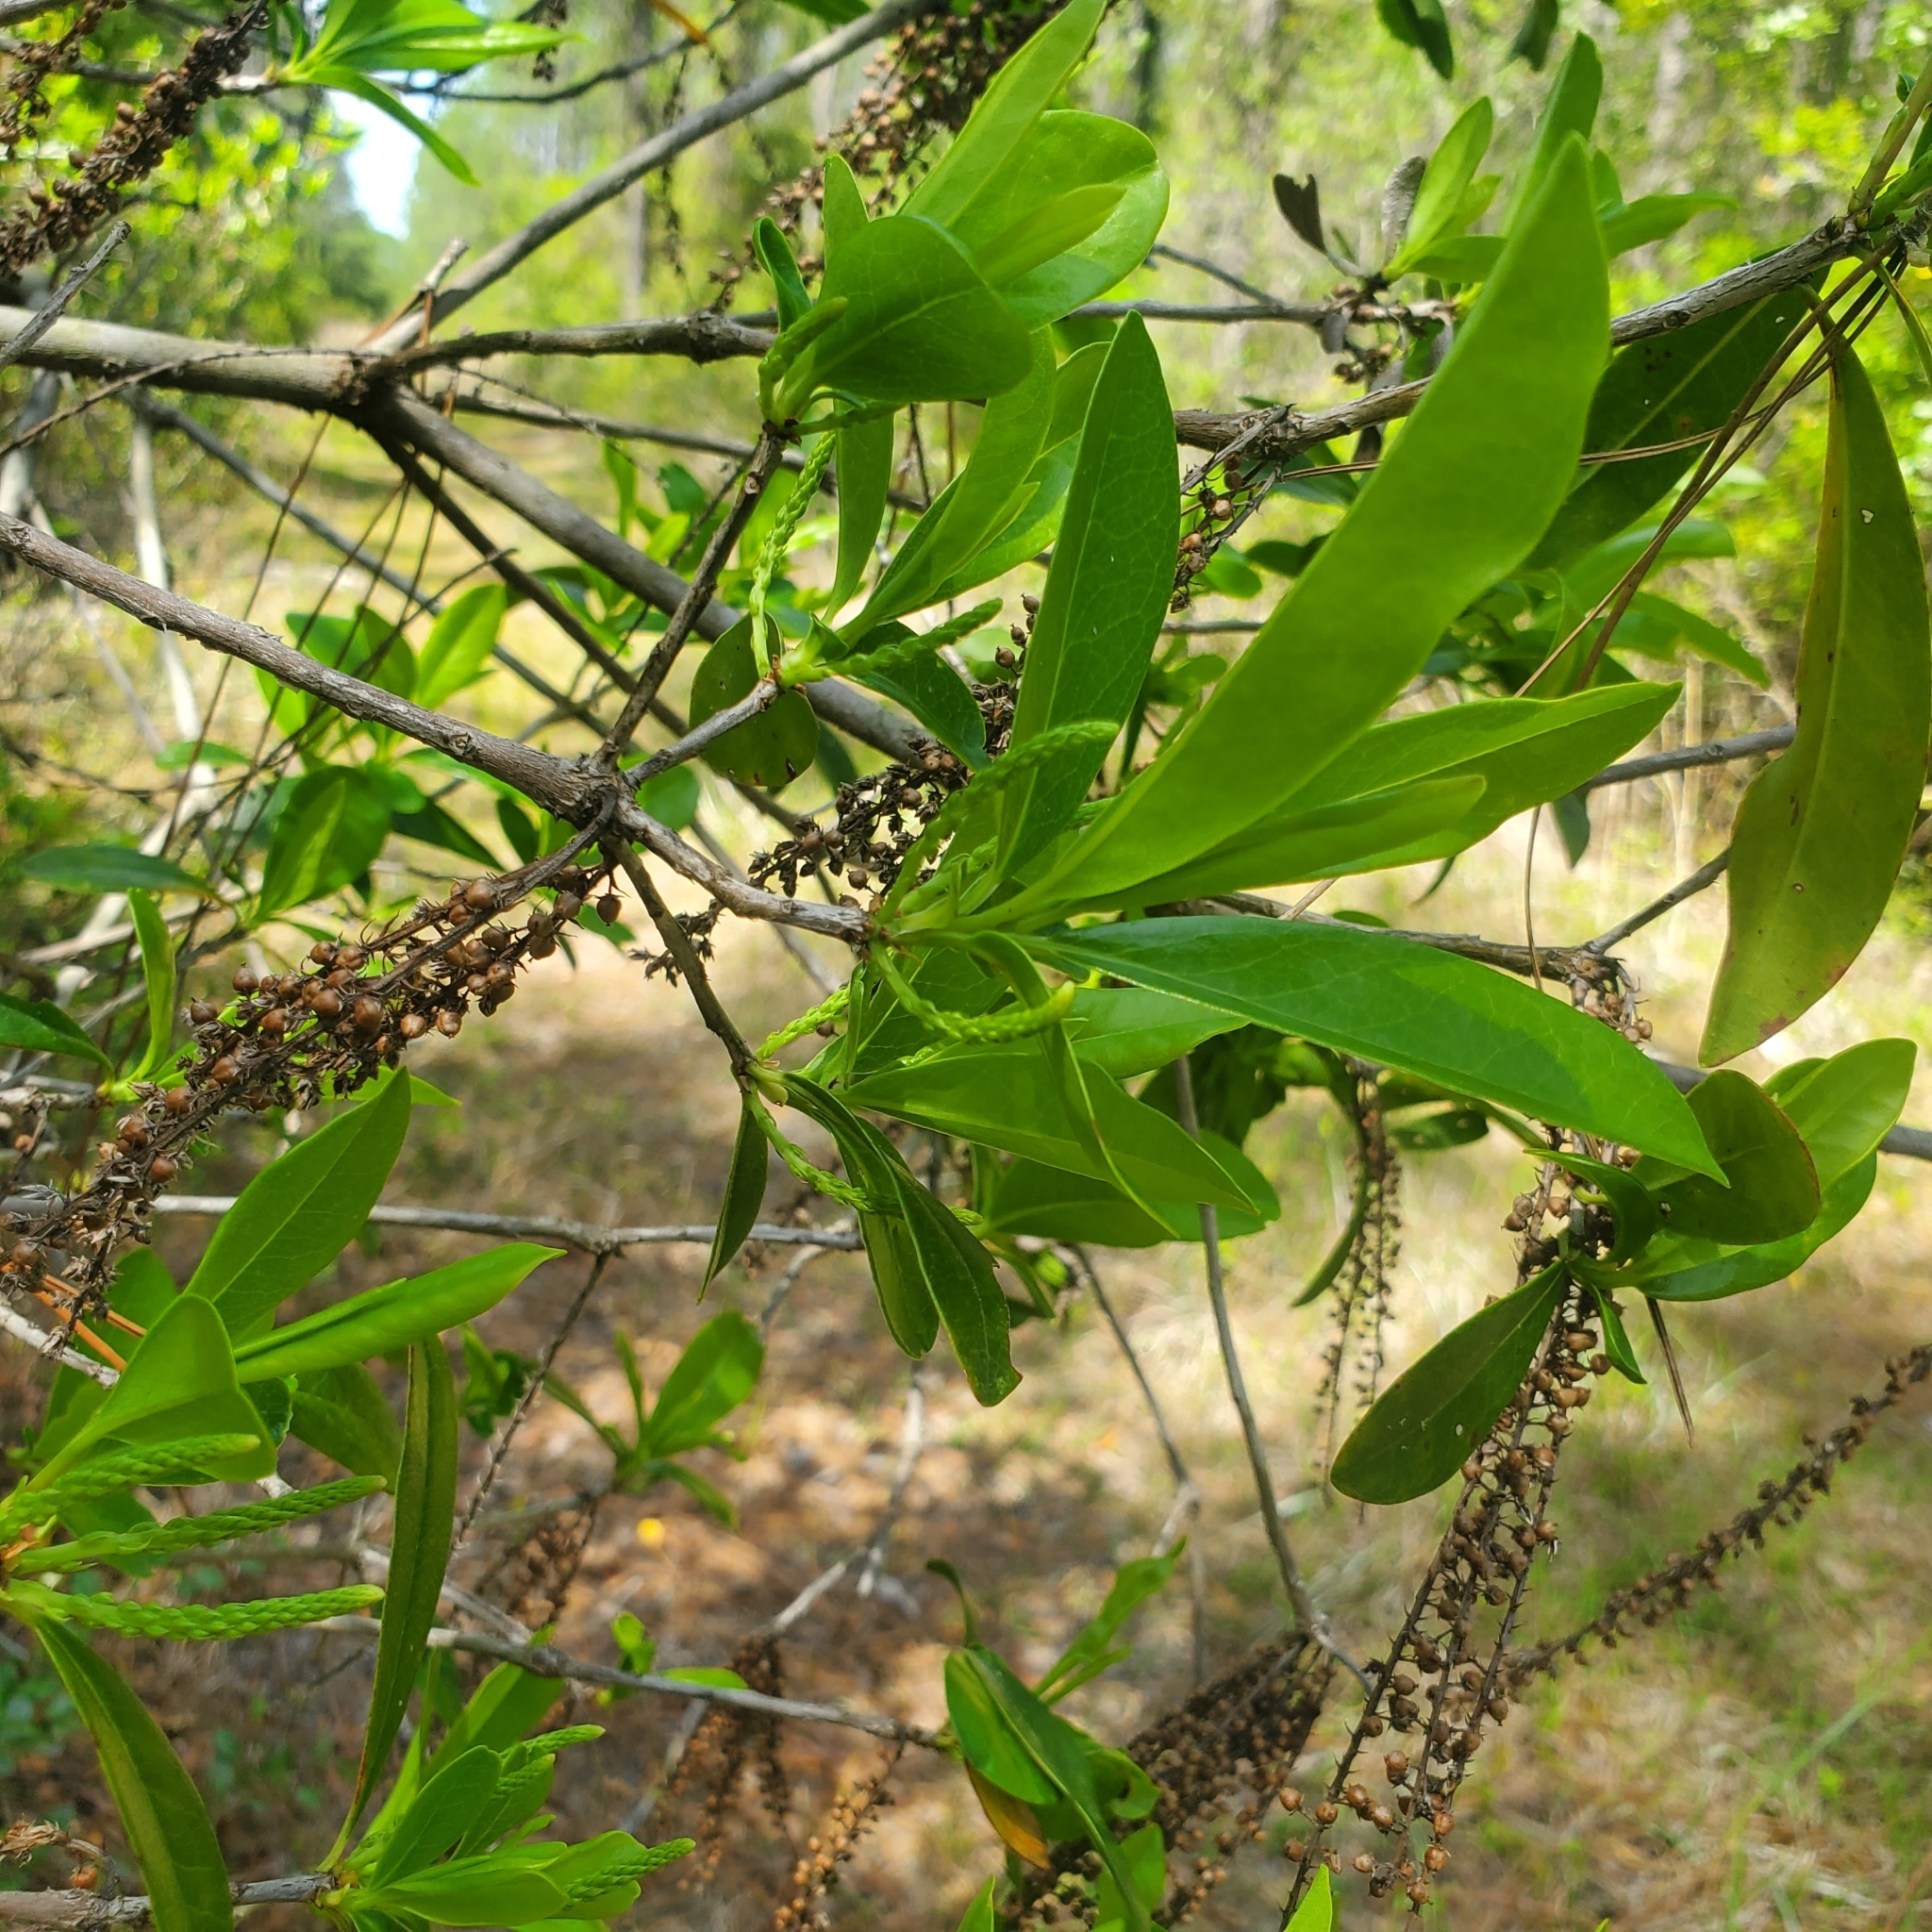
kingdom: Plantae
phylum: Tracheophyta
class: Magnoliopsida
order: Ericales
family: Cyrillaceae
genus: Cyrilla
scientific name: Cyrilla racemiflora
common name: Black titi
